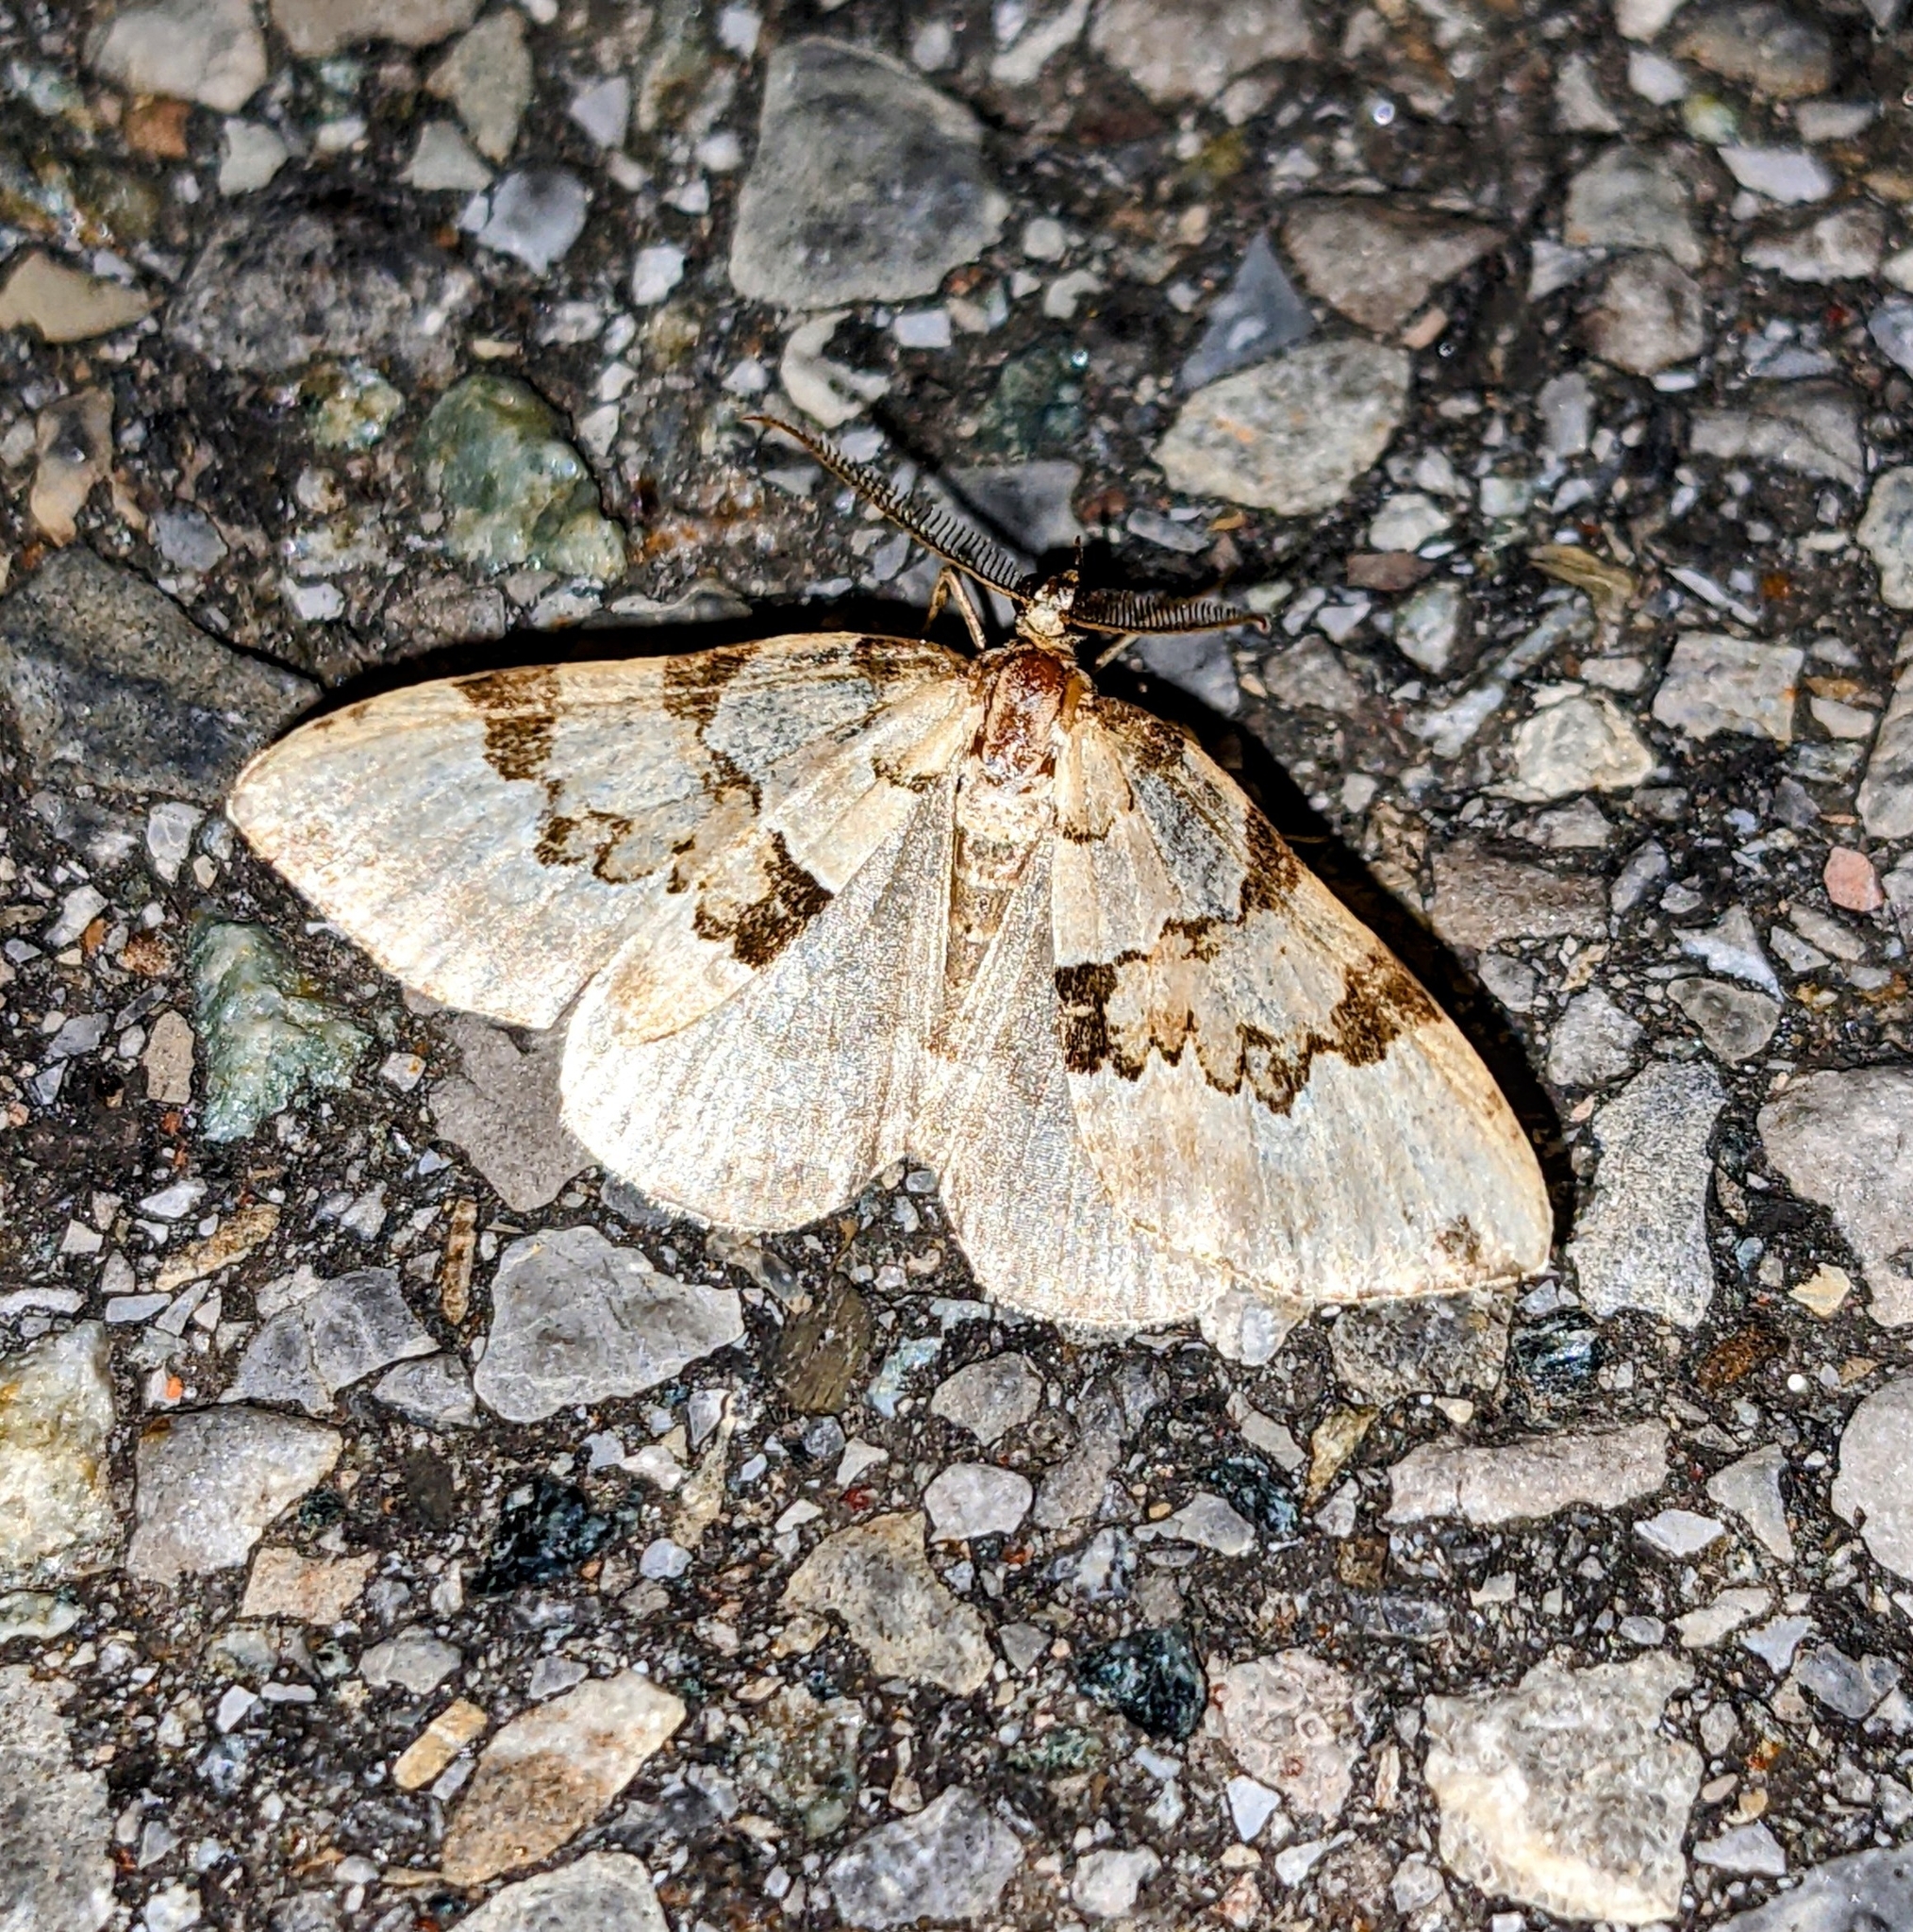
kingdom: Animalia
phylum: Arthropoda
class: Insecta
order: Lepidoptera
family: Geometridae
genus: Colostygia
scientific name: Colostygia pectinataria
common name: Green carpet
